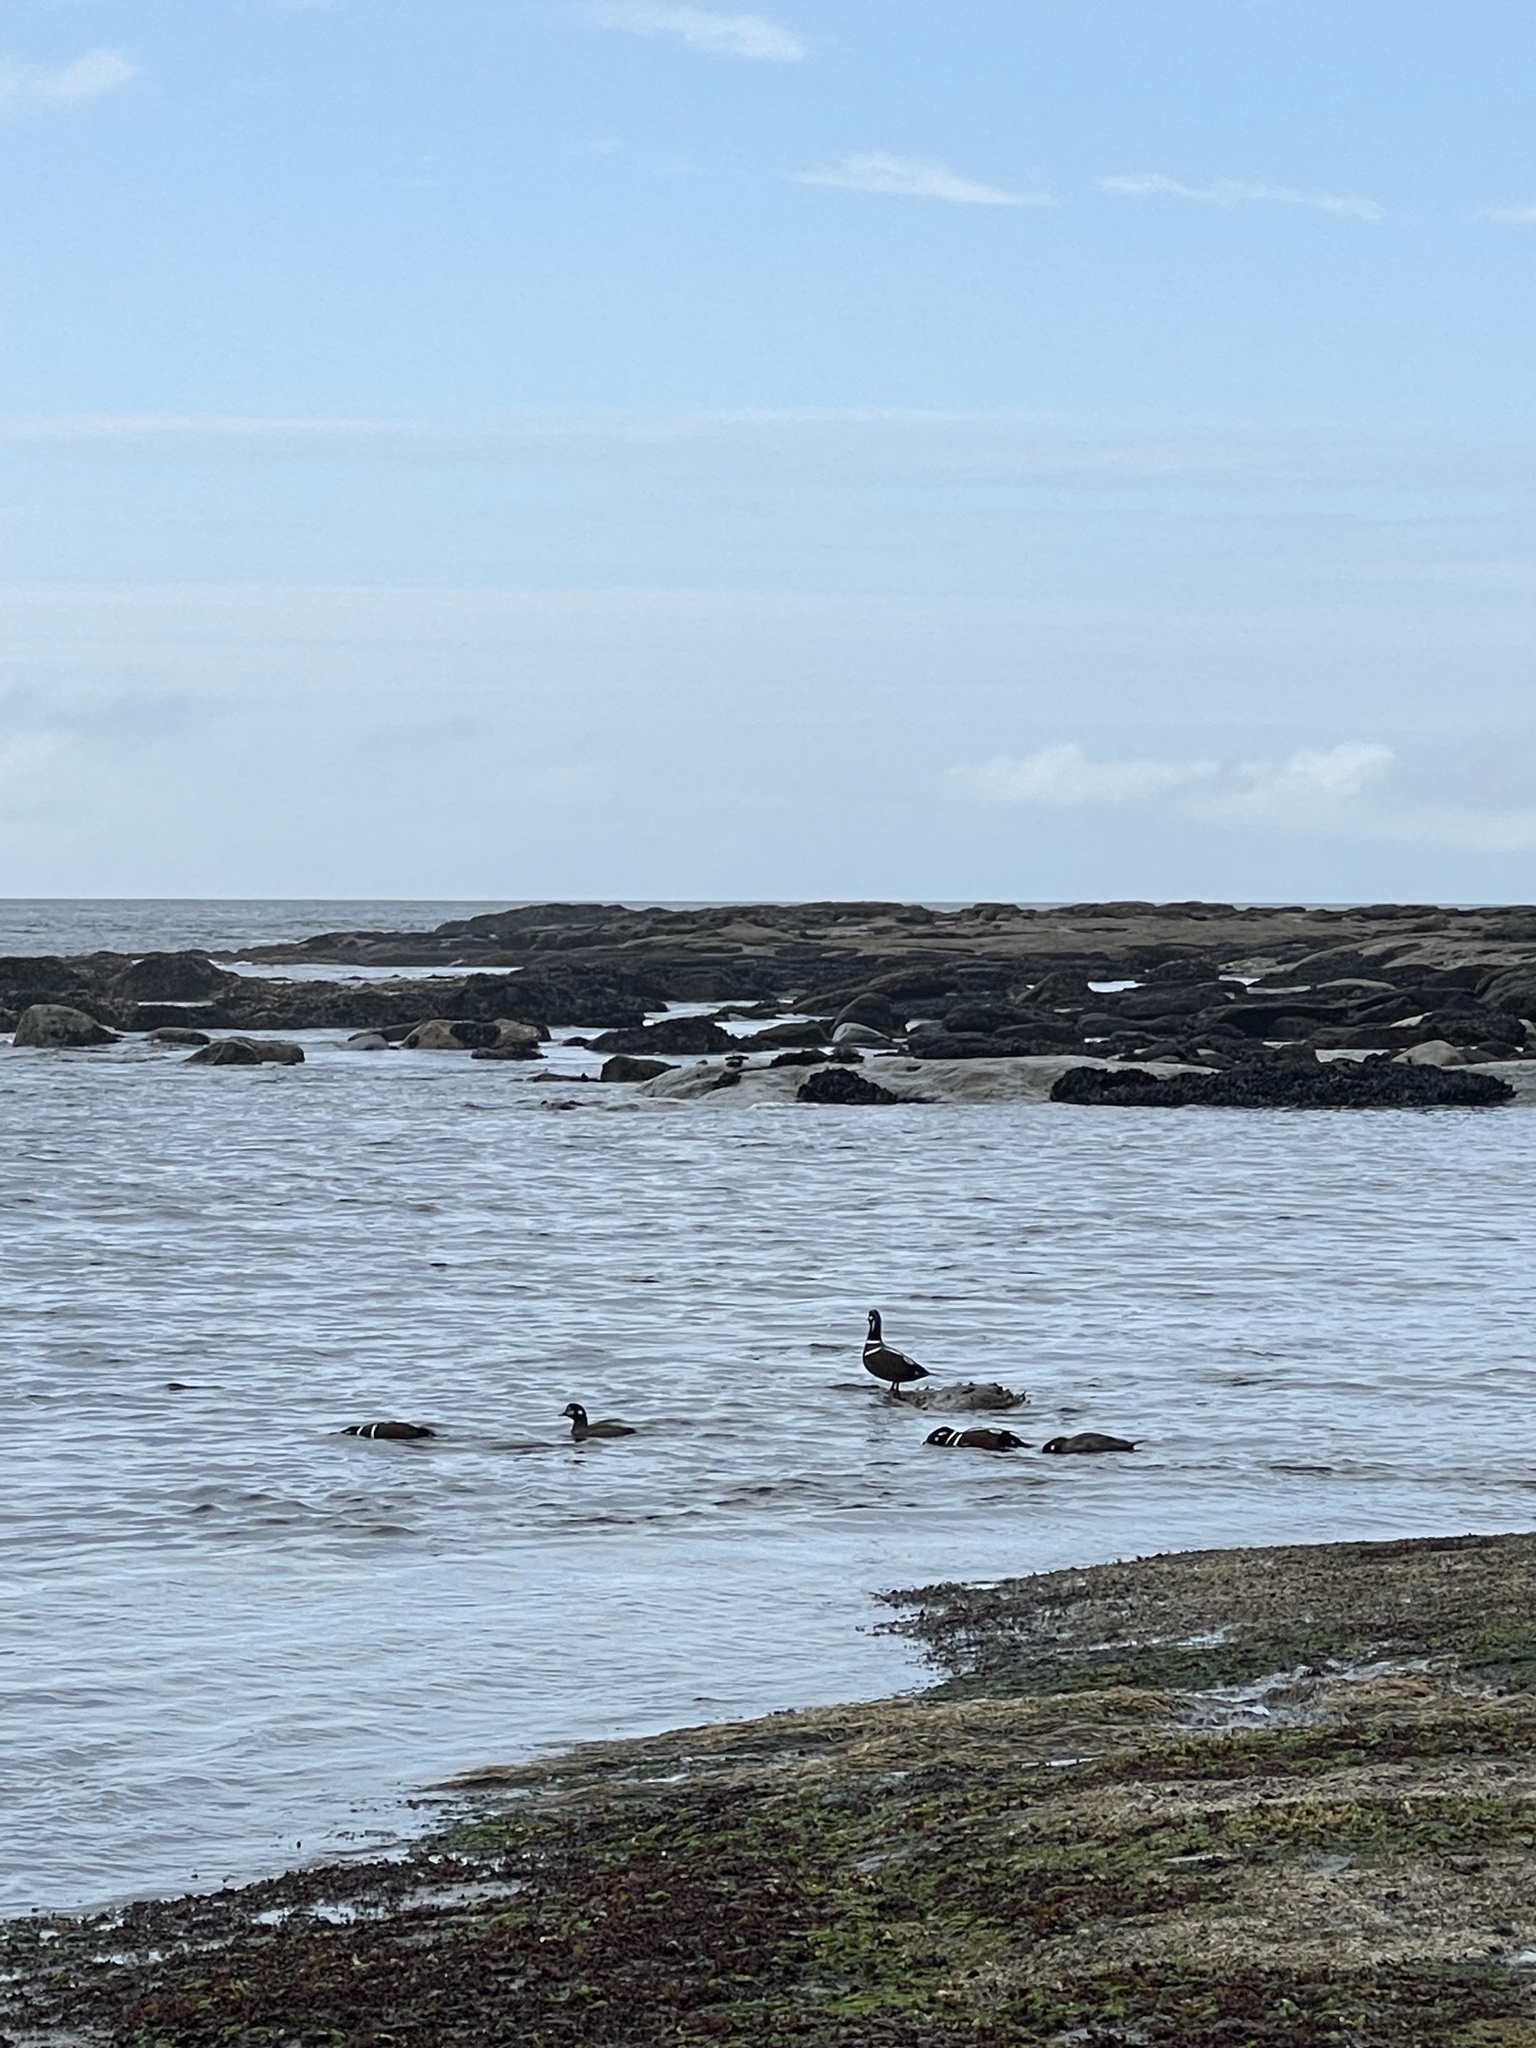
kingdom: Animalia
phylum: Chordata
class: Aves
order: Anseriformes
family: Anatidae
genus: Histrionicus
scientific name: Histrionicus histrionicus
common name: Harlequin duck
